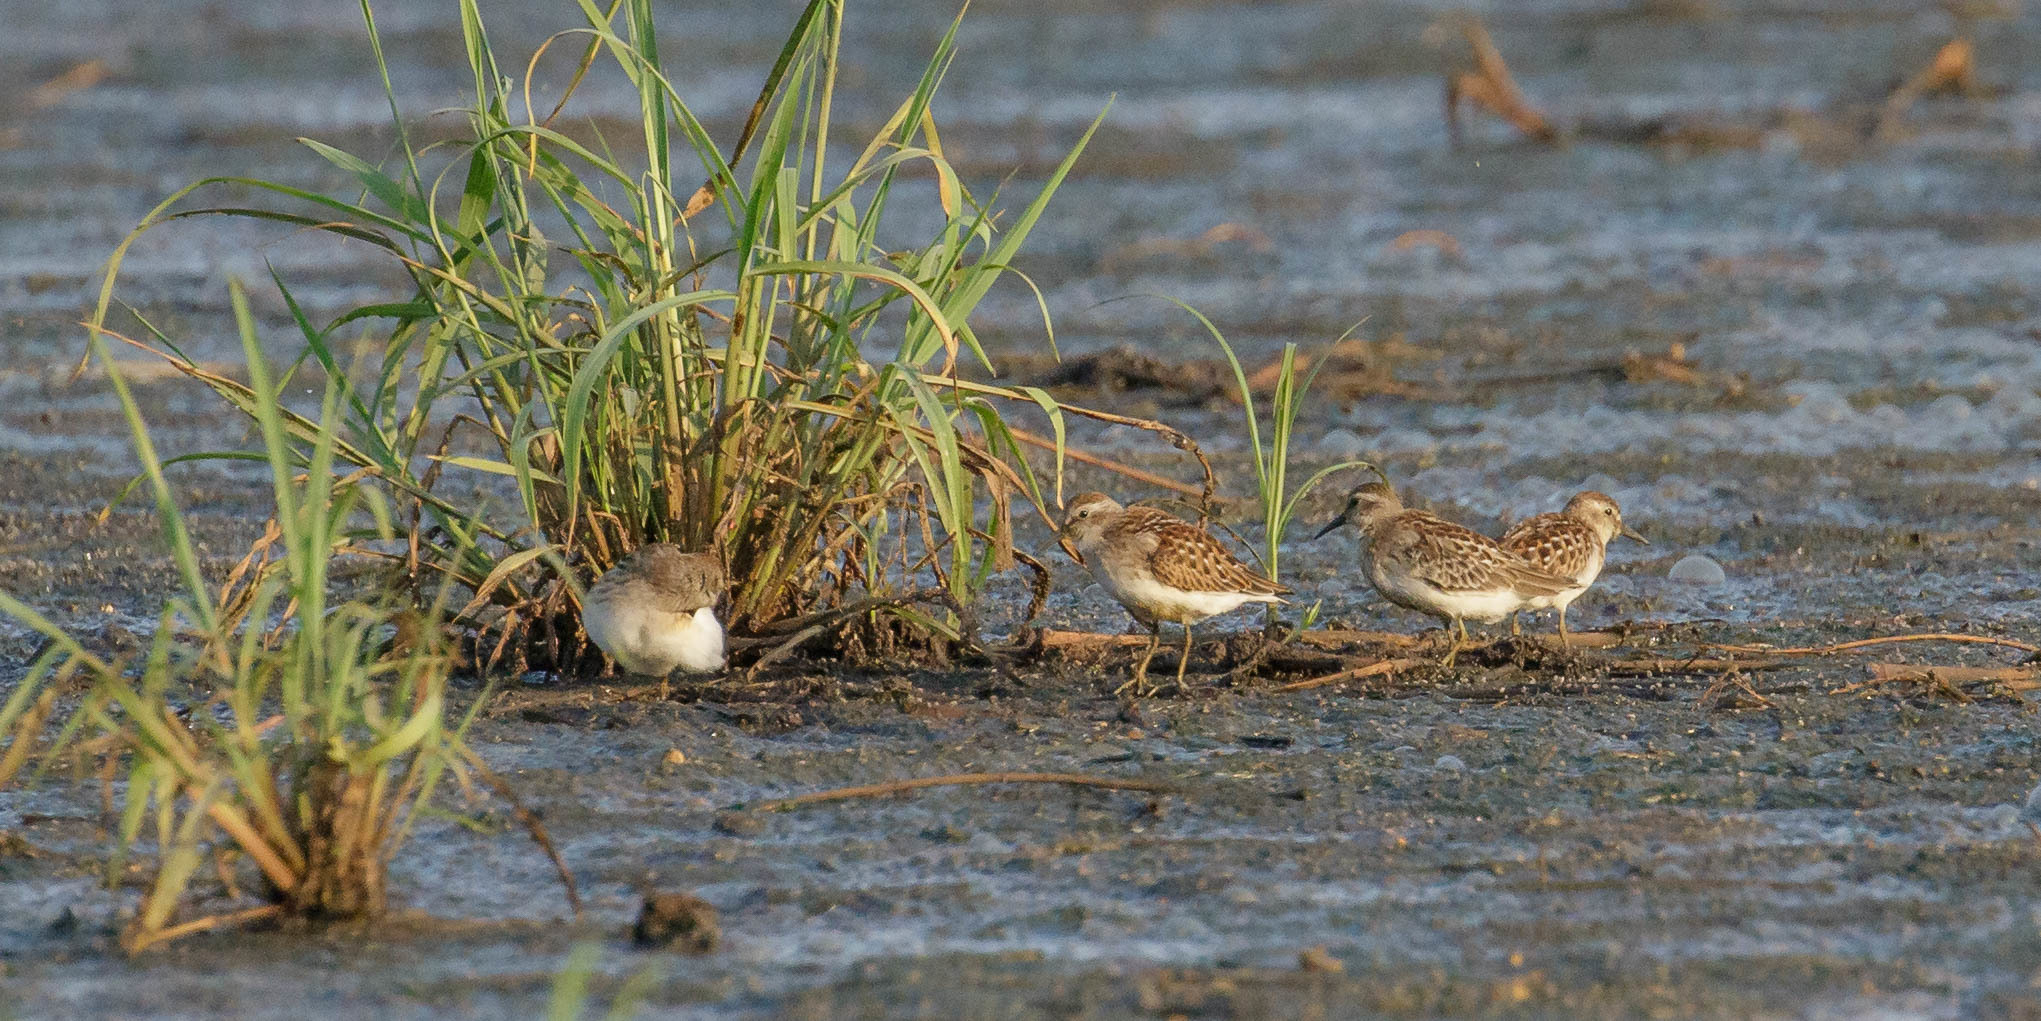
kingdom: Animalia
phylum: Chordata
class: Aves
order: Charadriiformes
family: Scolopacidae
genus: Calidris
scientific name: Calidris minutilla
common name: Least sandpiper
